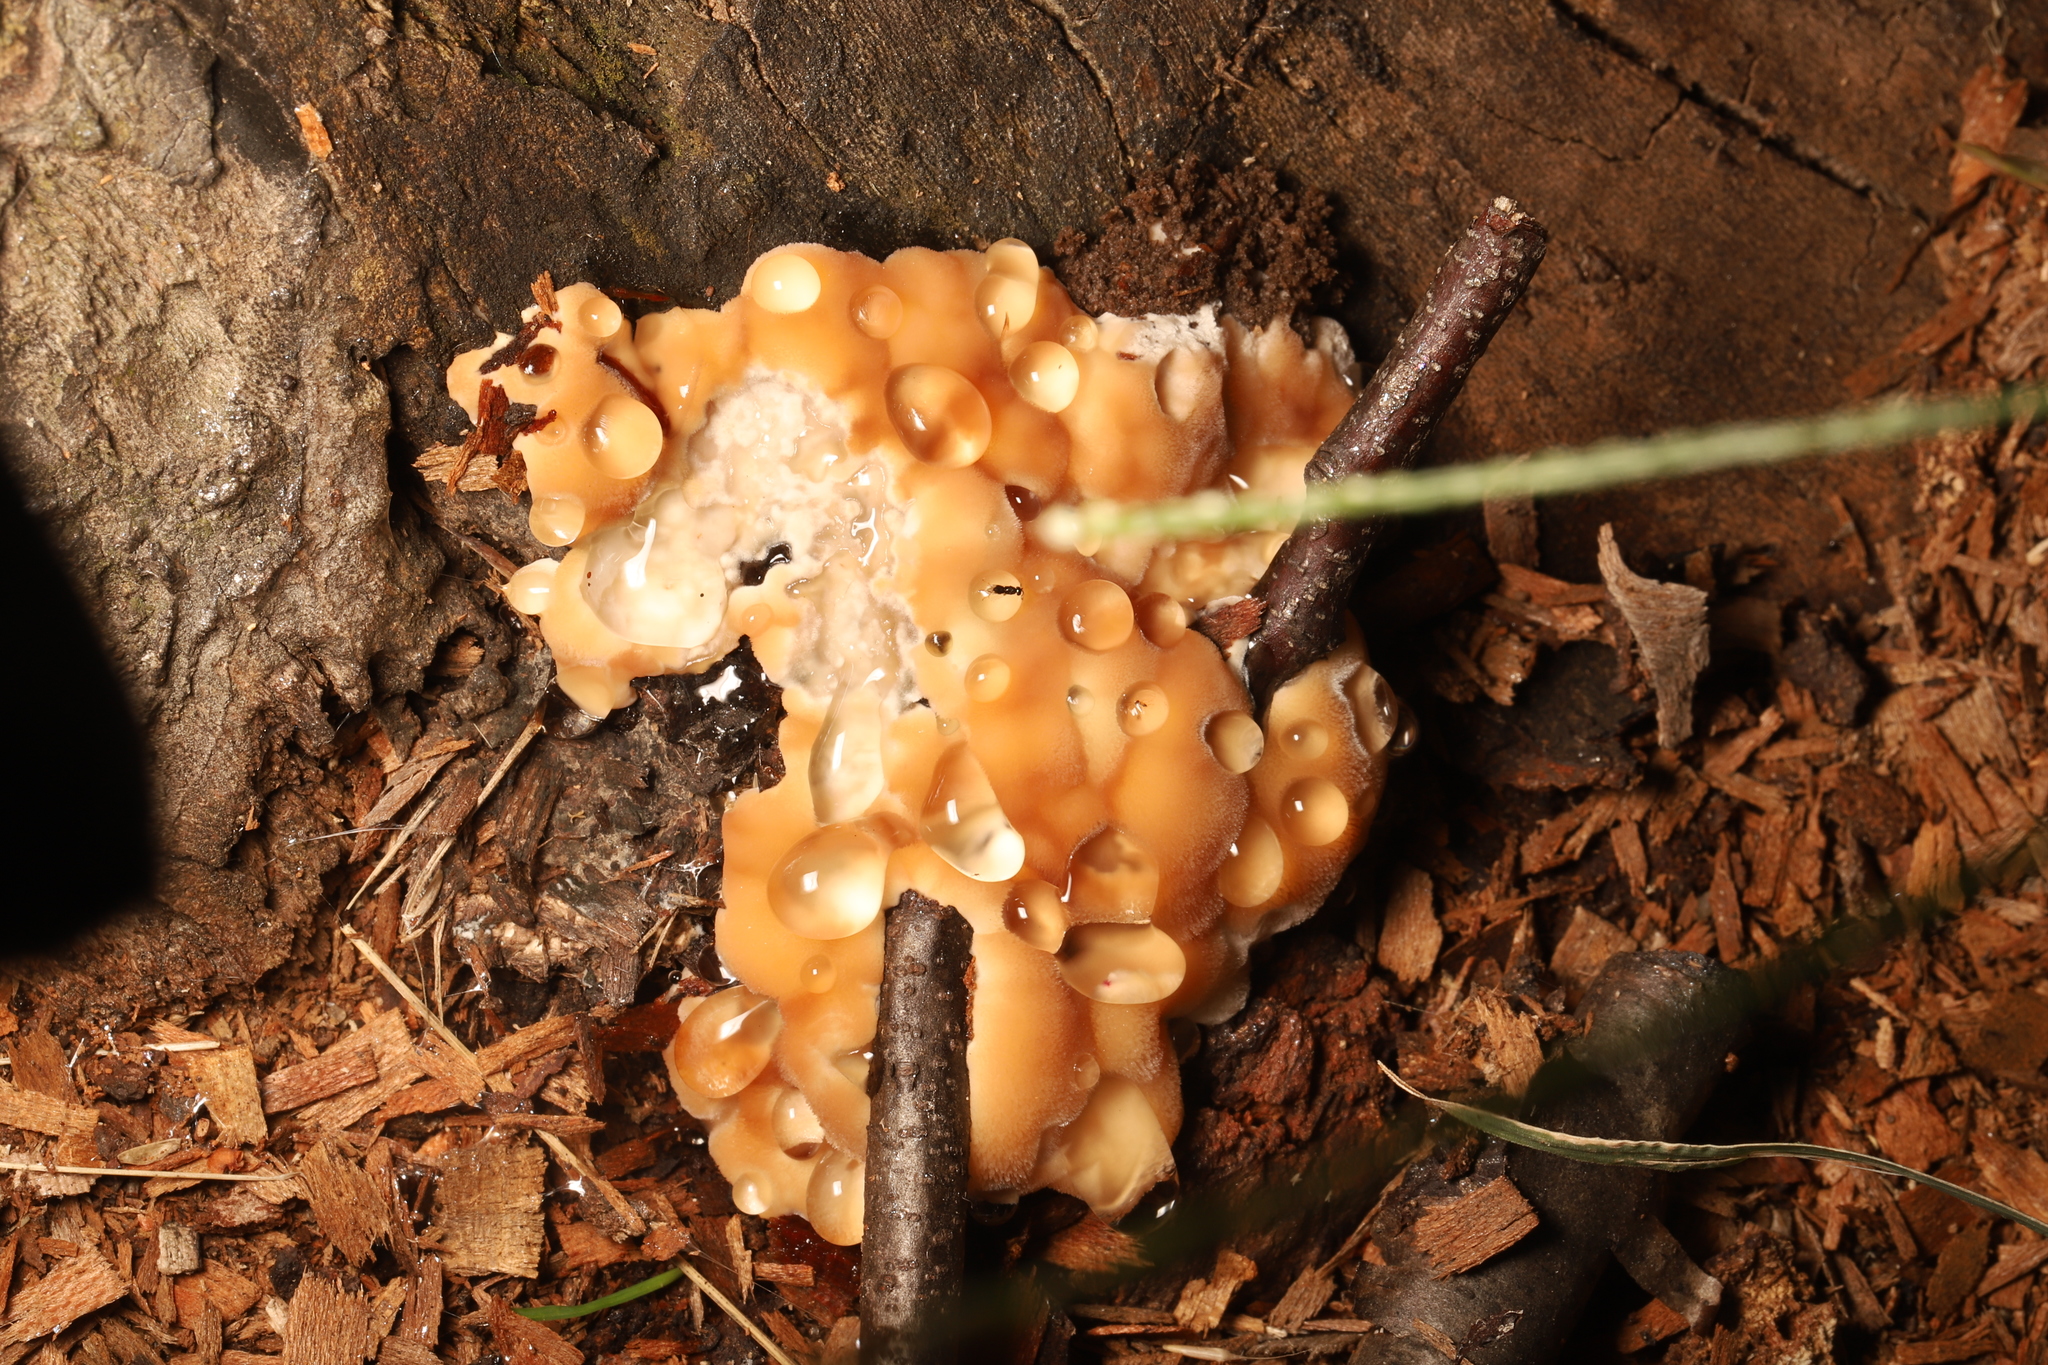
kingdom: Fungi
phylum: Basidiomycota
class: Agaricomycetes
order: Polyporales
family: Fomitopsidaceae
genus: Niveoporofomes
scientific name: Niveoporofomes spraguei
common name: Green cheese polypore
